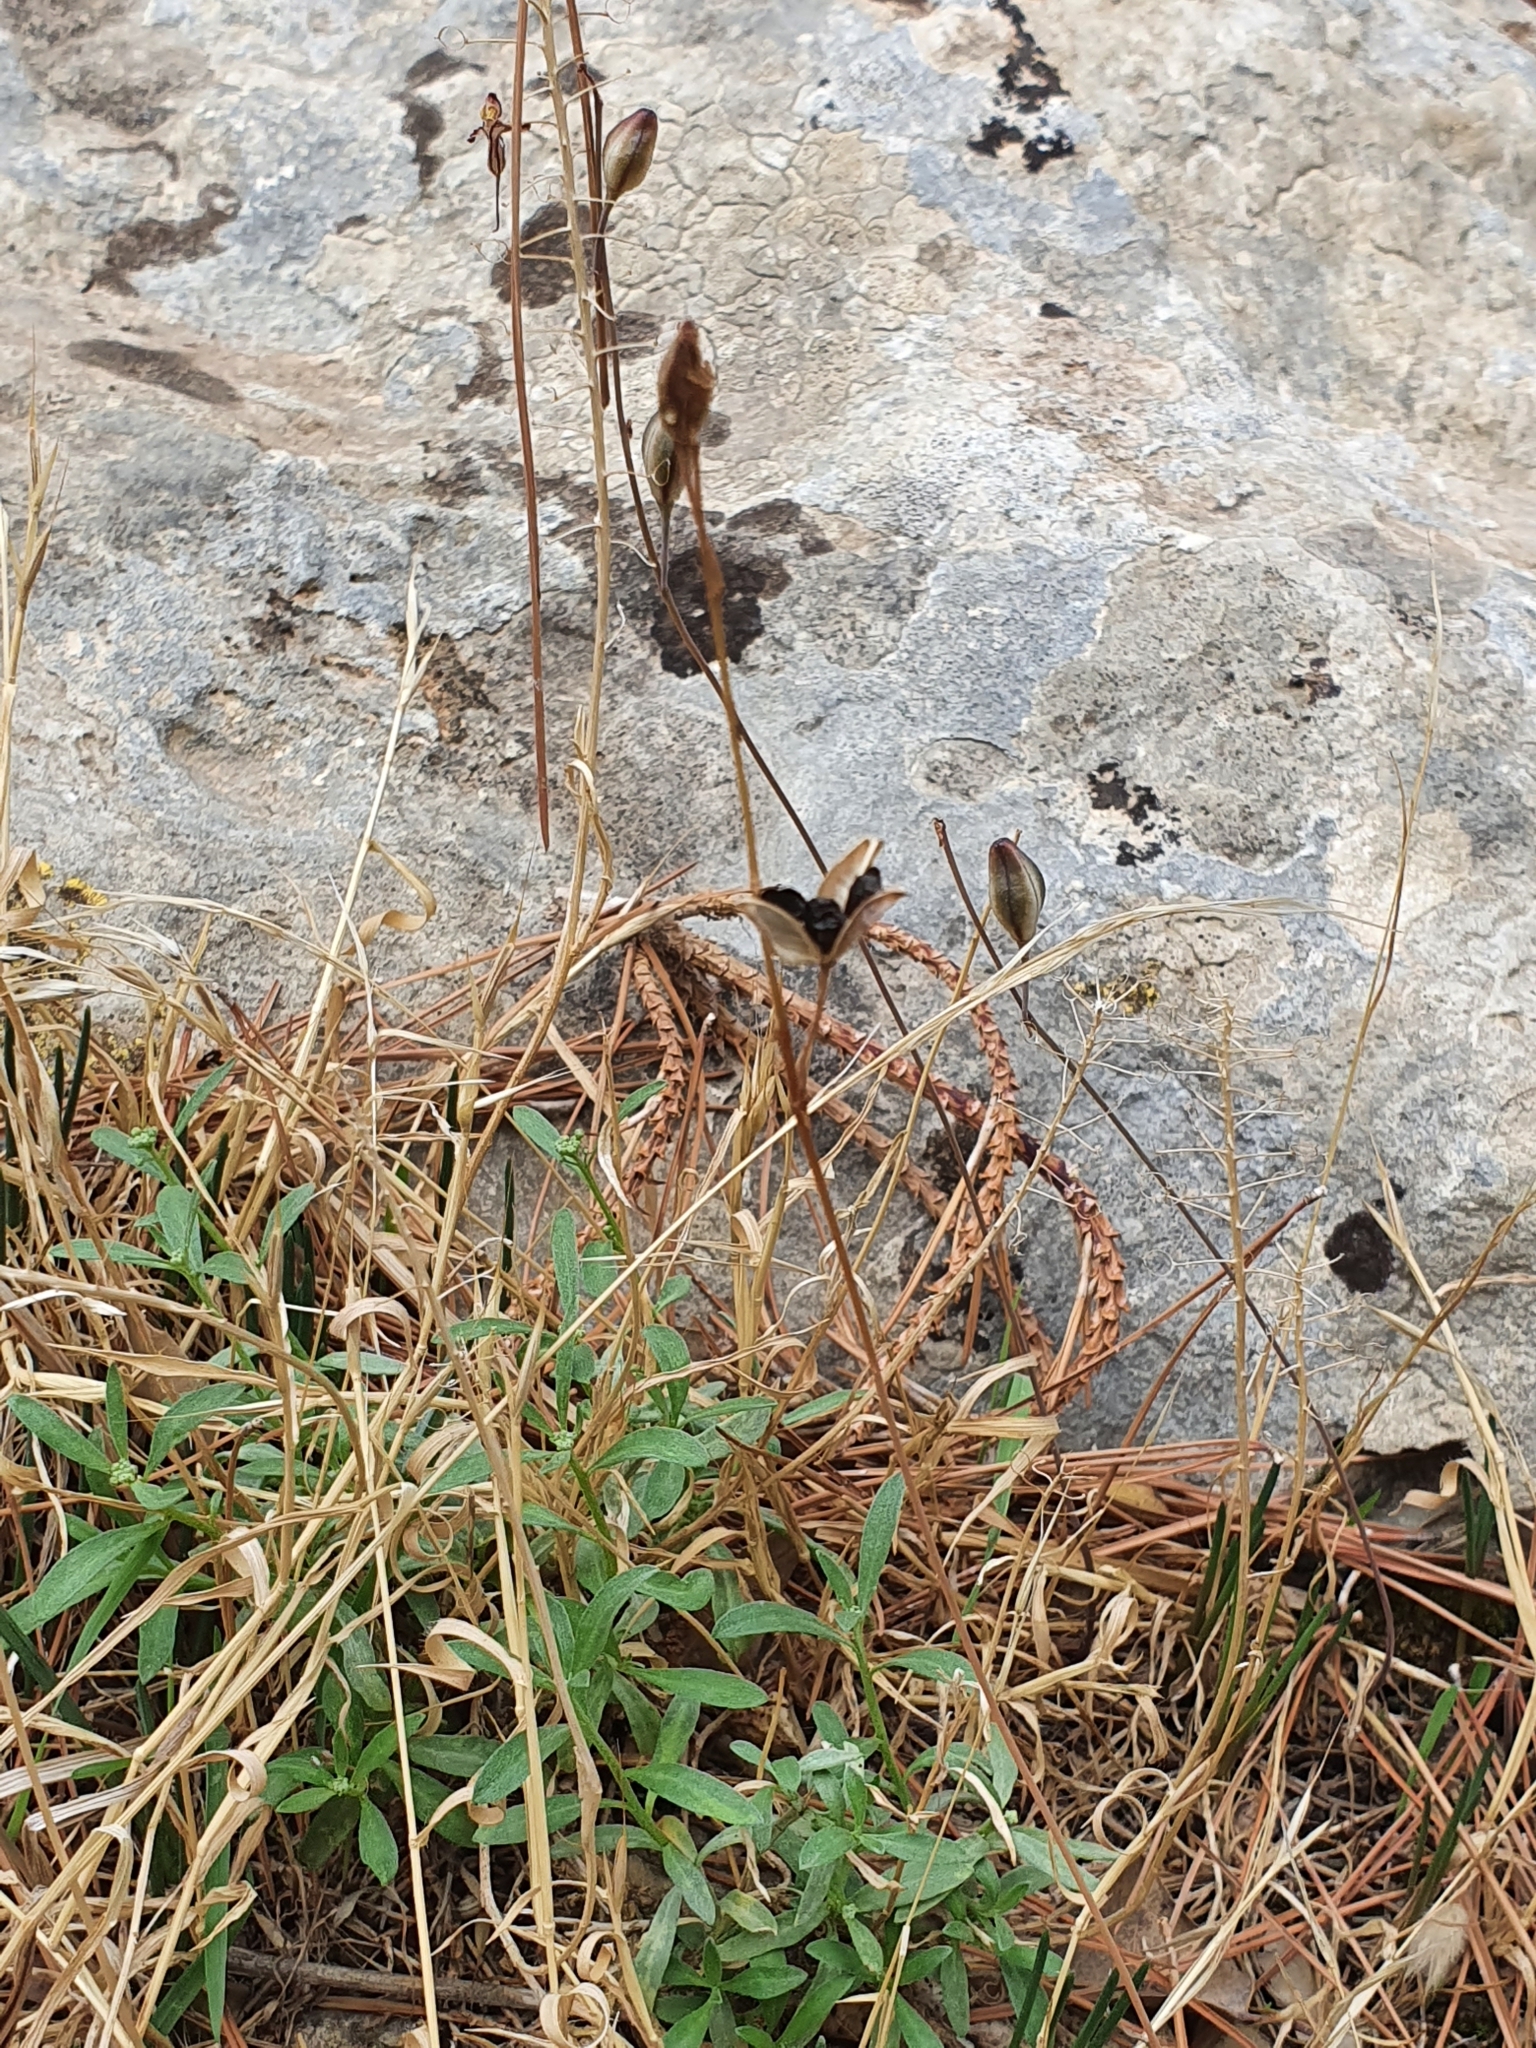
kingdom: Plantae
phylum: Tracheophyta
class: Liliopsida
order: Asparagales
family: Asparagaceae
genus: Drimia
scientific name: Drimia fugax
